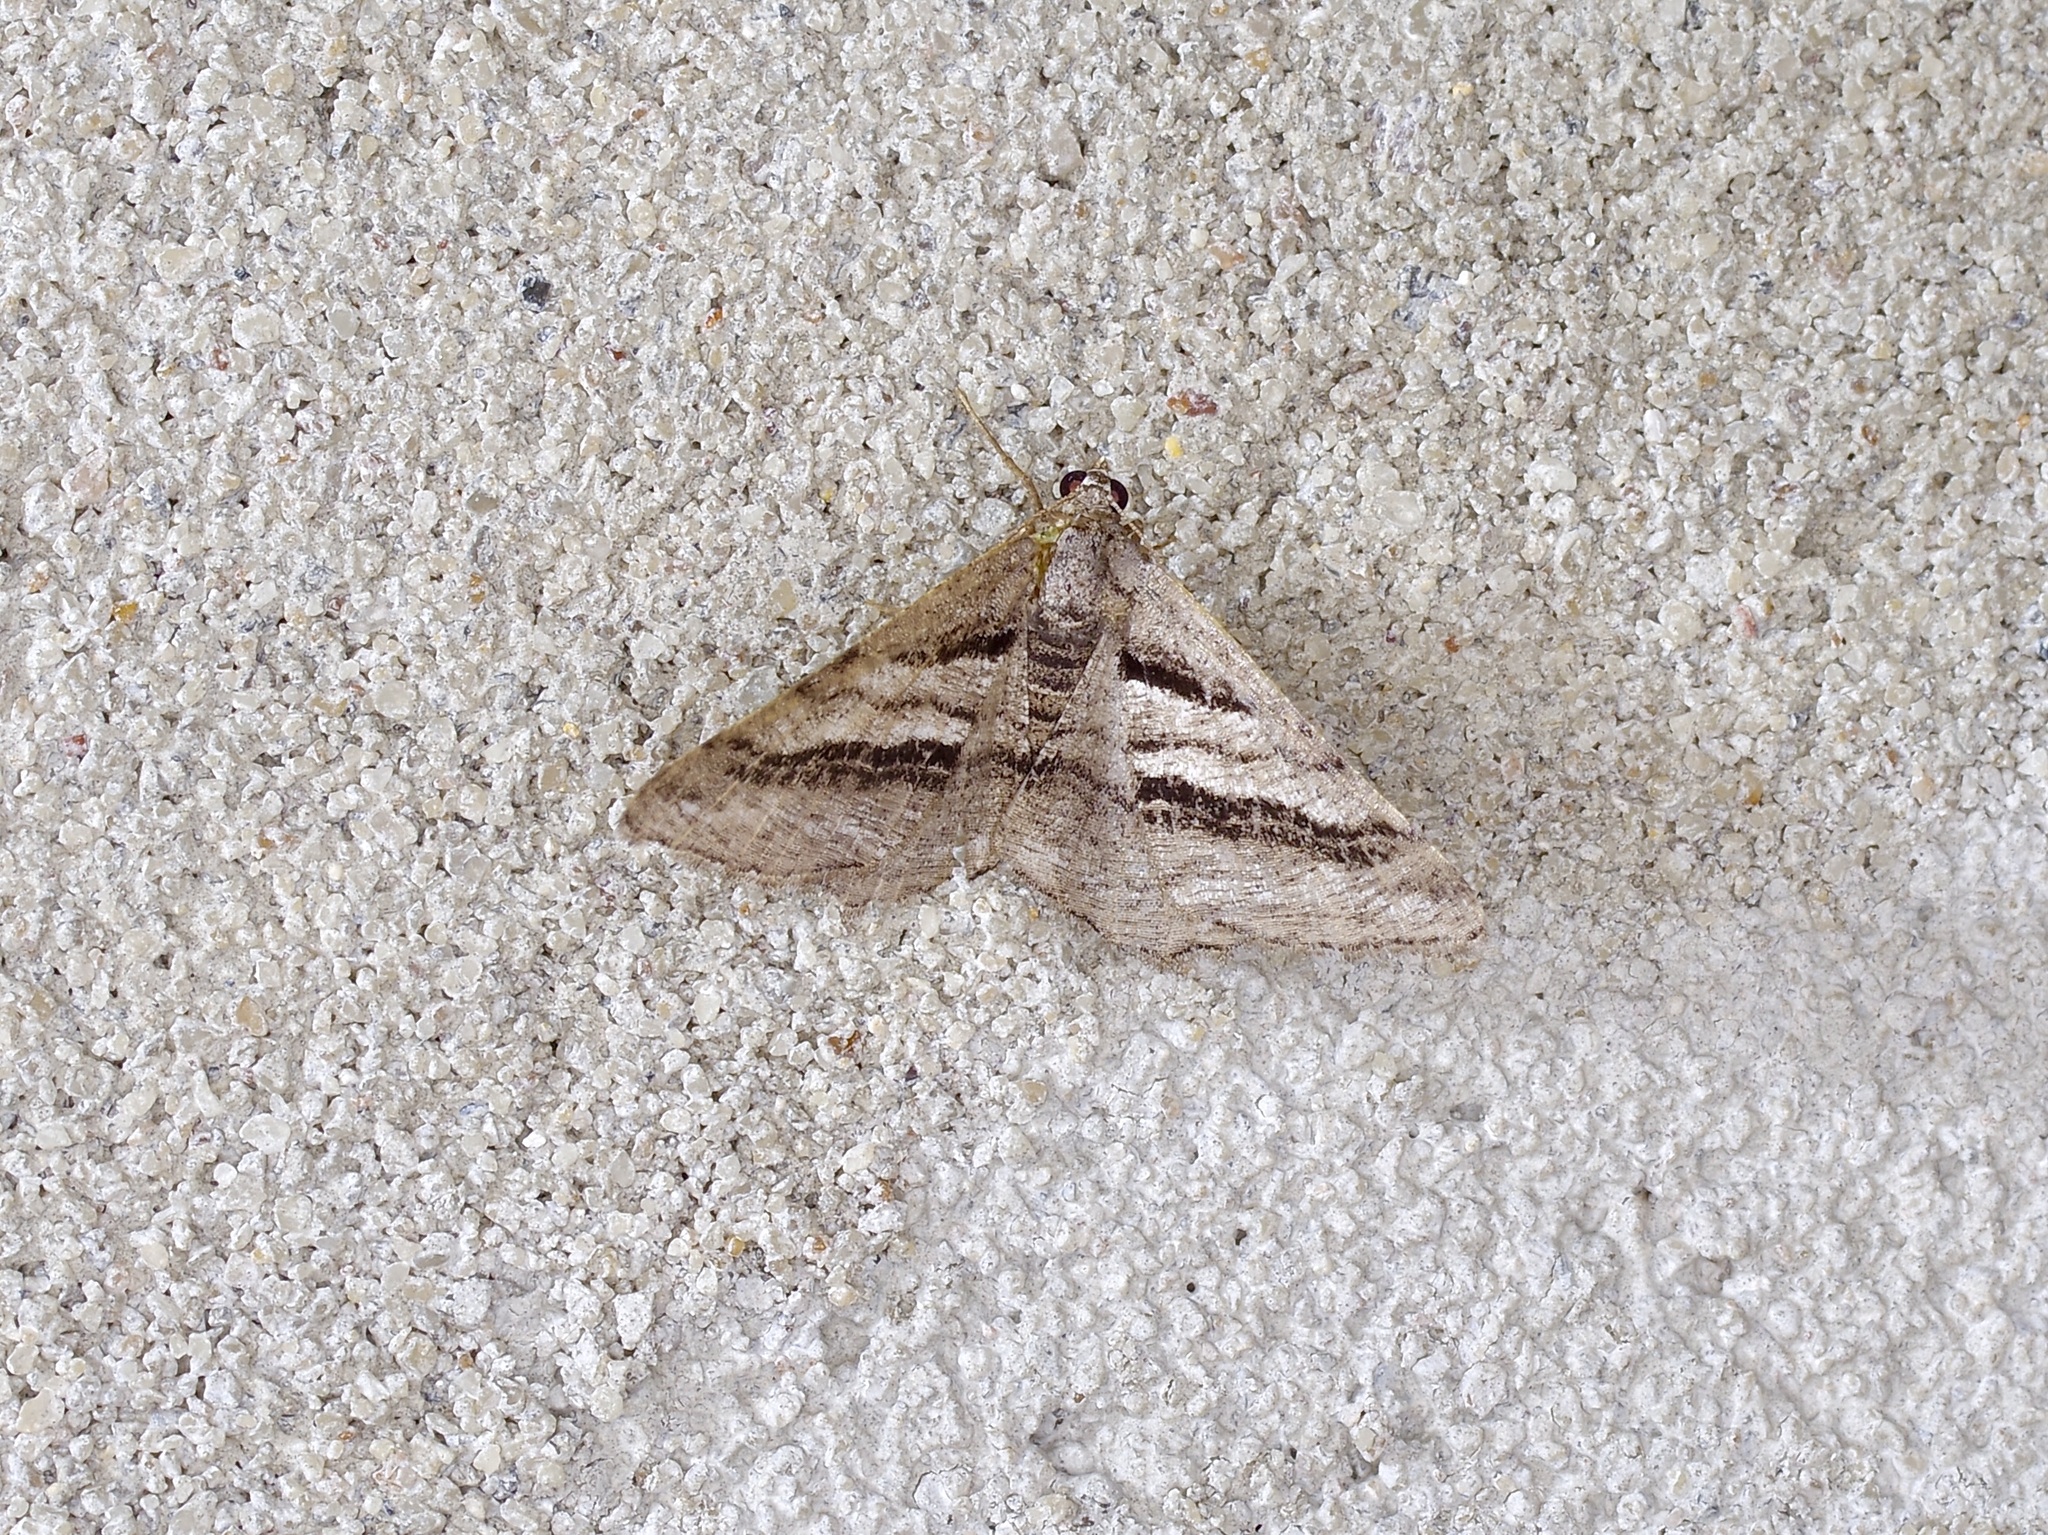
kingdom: Animalia
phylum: Arthropoda
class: Insecta
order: Lepidoptera
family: Geometridae
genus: Digrammia
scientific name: Digrammia atrofasciata
